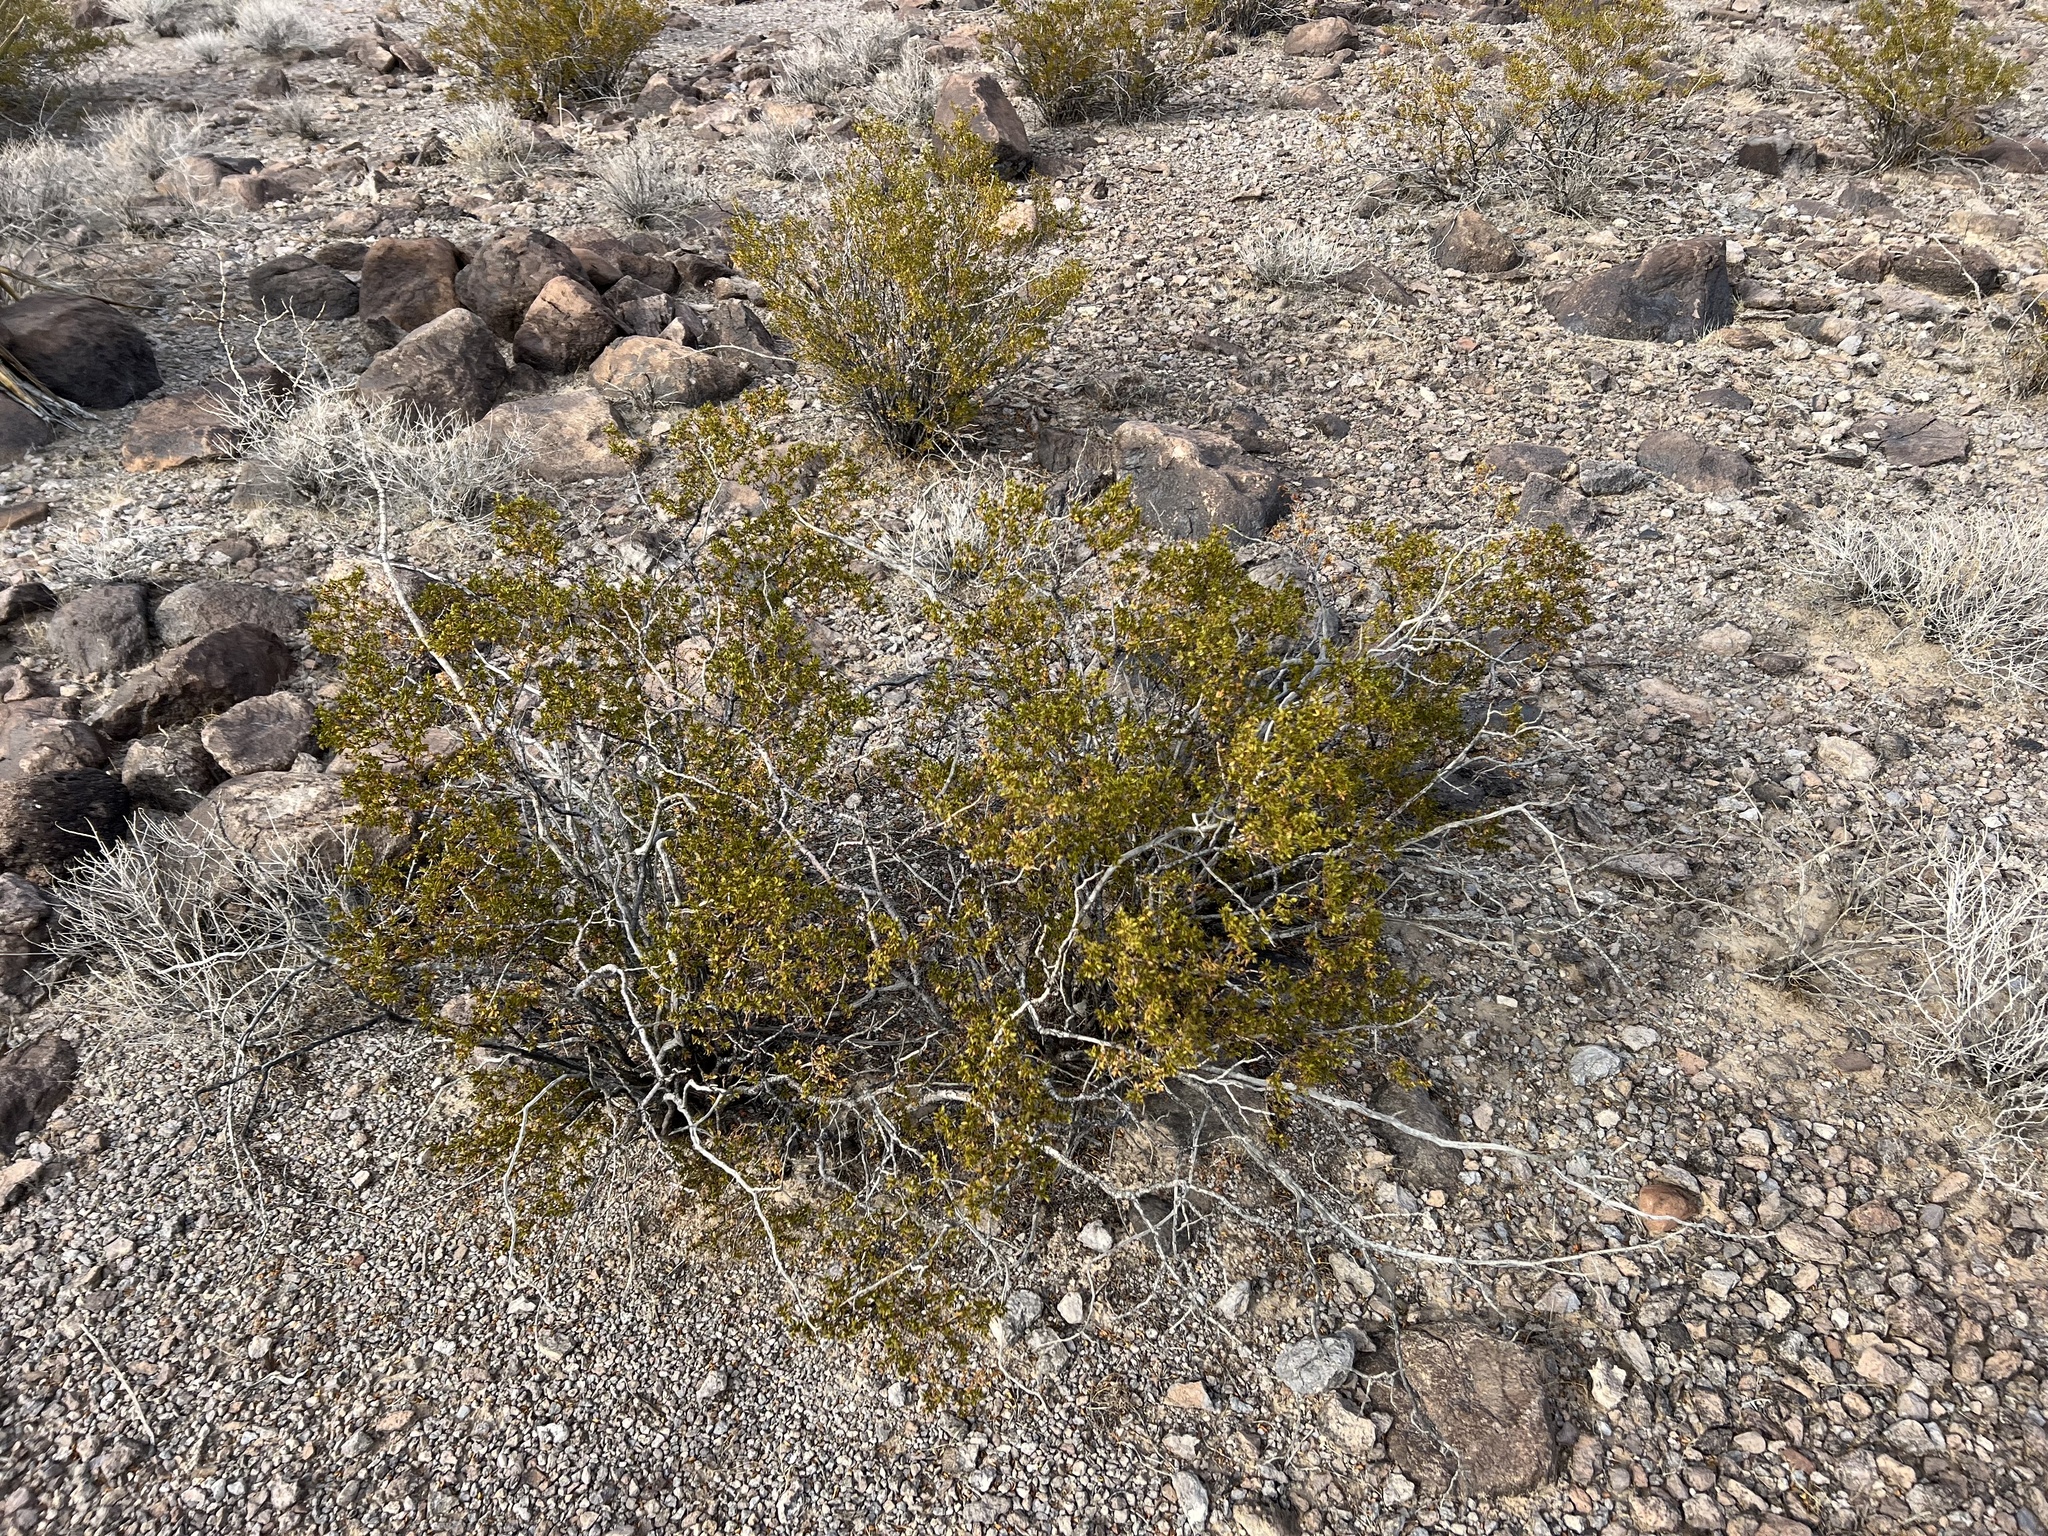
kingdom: Plantae
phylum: Tracheophyta
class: Magnoliopsida
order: Zygophyllales
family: Zygophyllaceae
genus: Larrea
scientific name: Larrea tridentata
